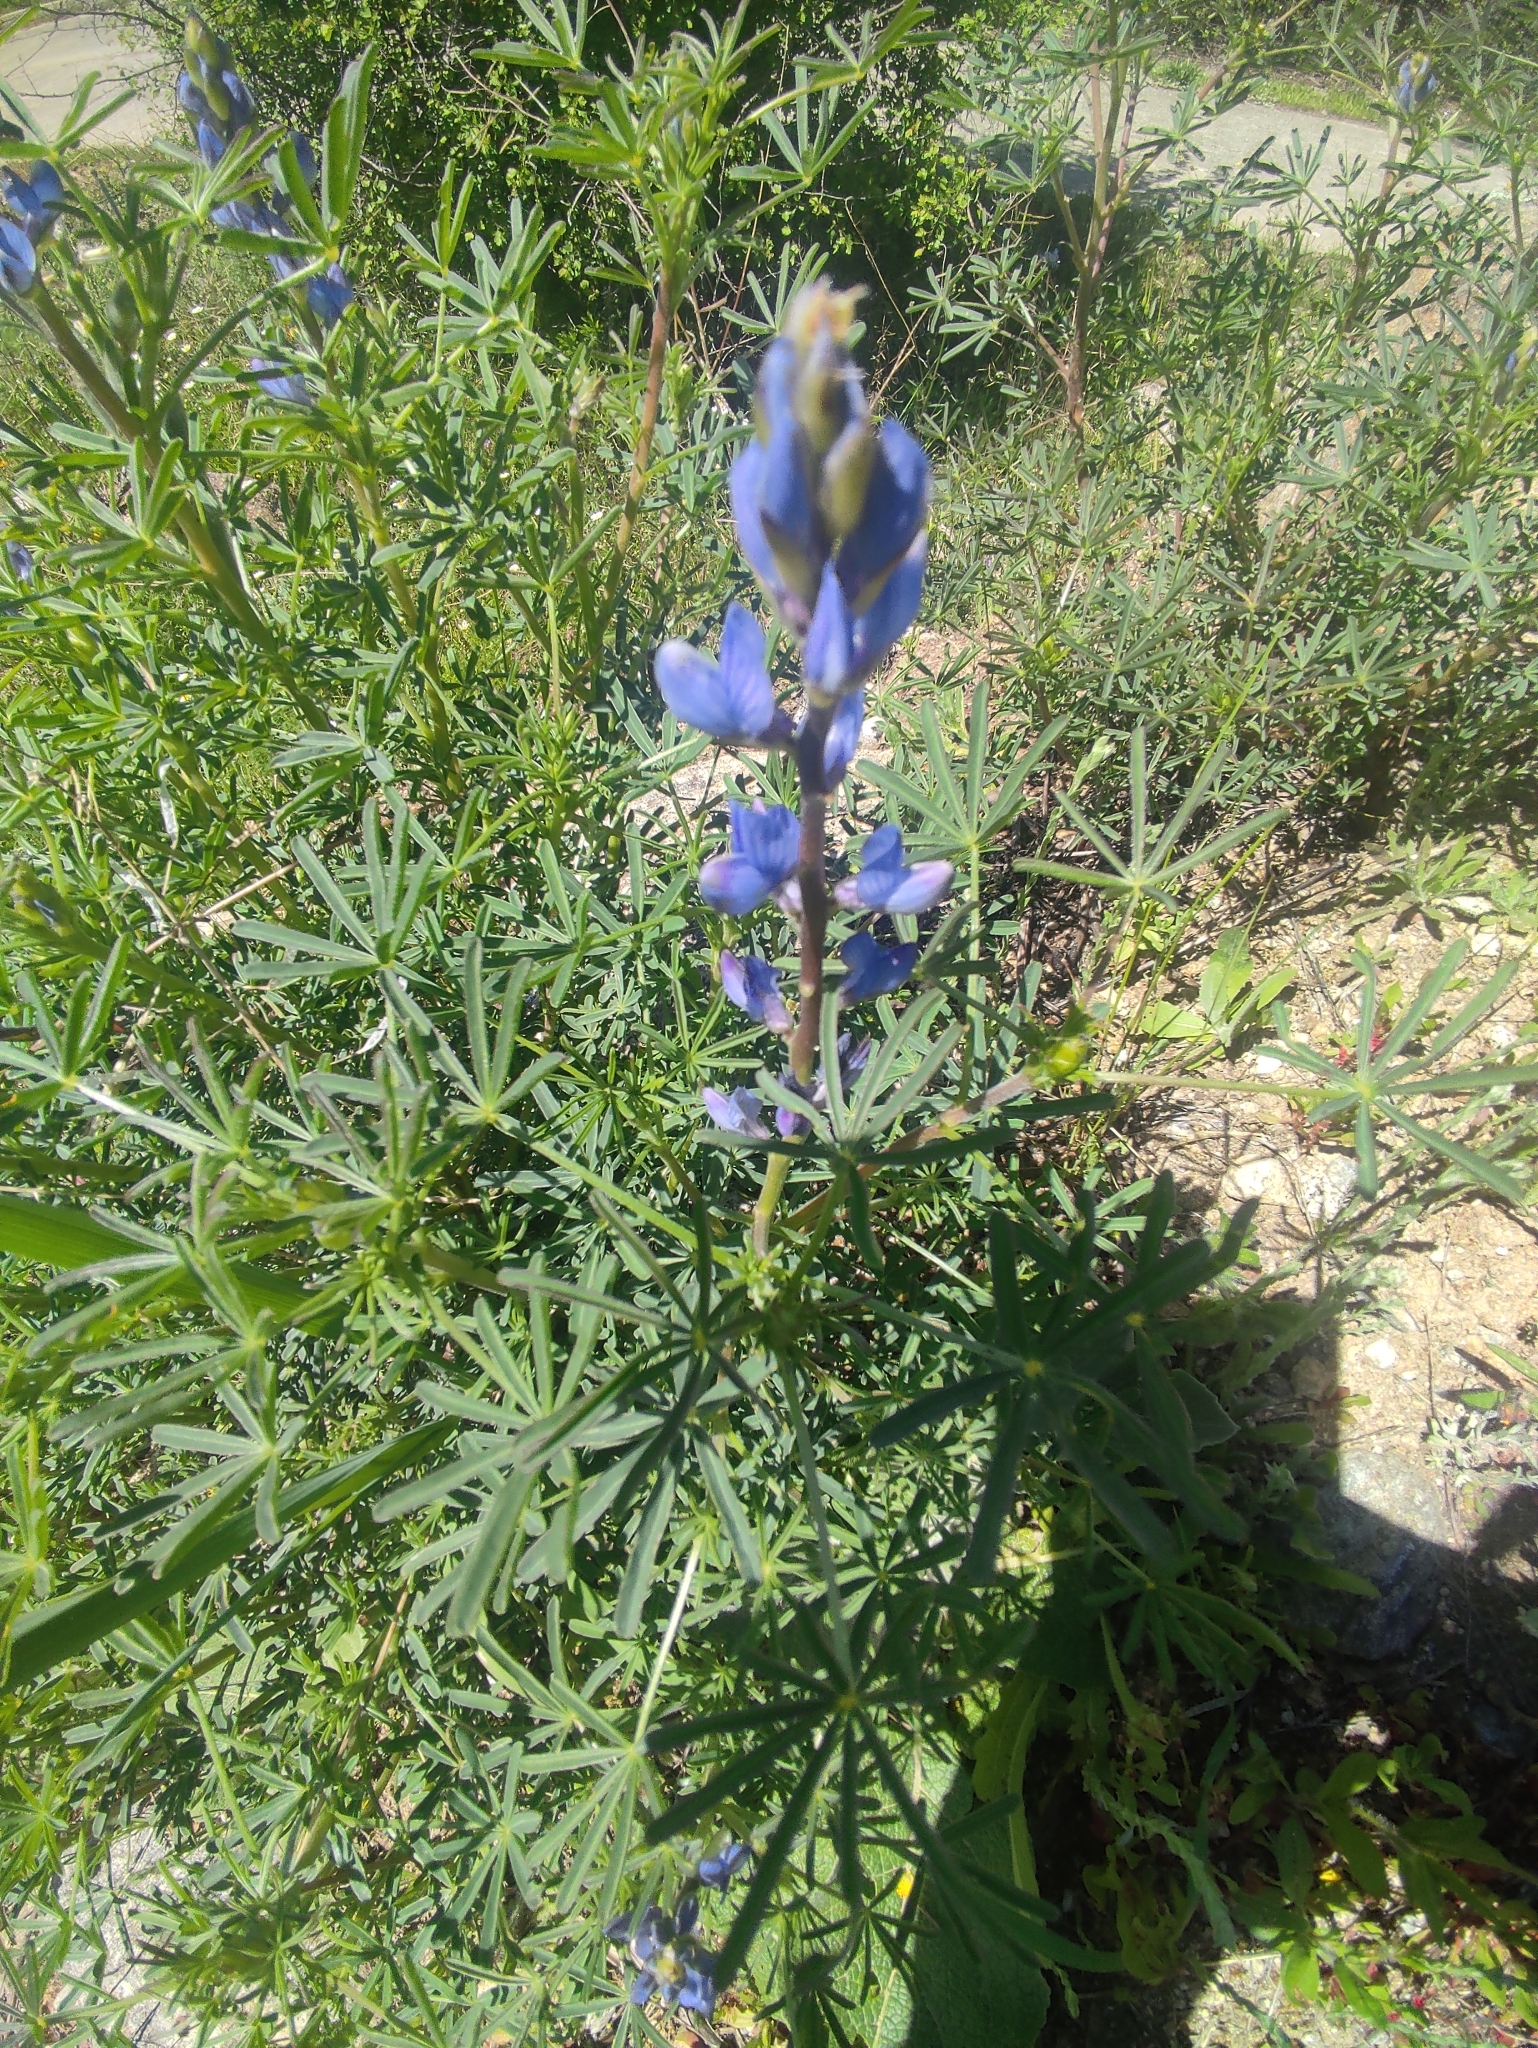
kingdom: Plantae
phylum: Tracheophyta
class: Magnoliopsida
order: Fabales
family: Fabaceae
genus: Lupinus
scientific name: Lupinus angustifolius
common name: Narrow-leaved lupin
